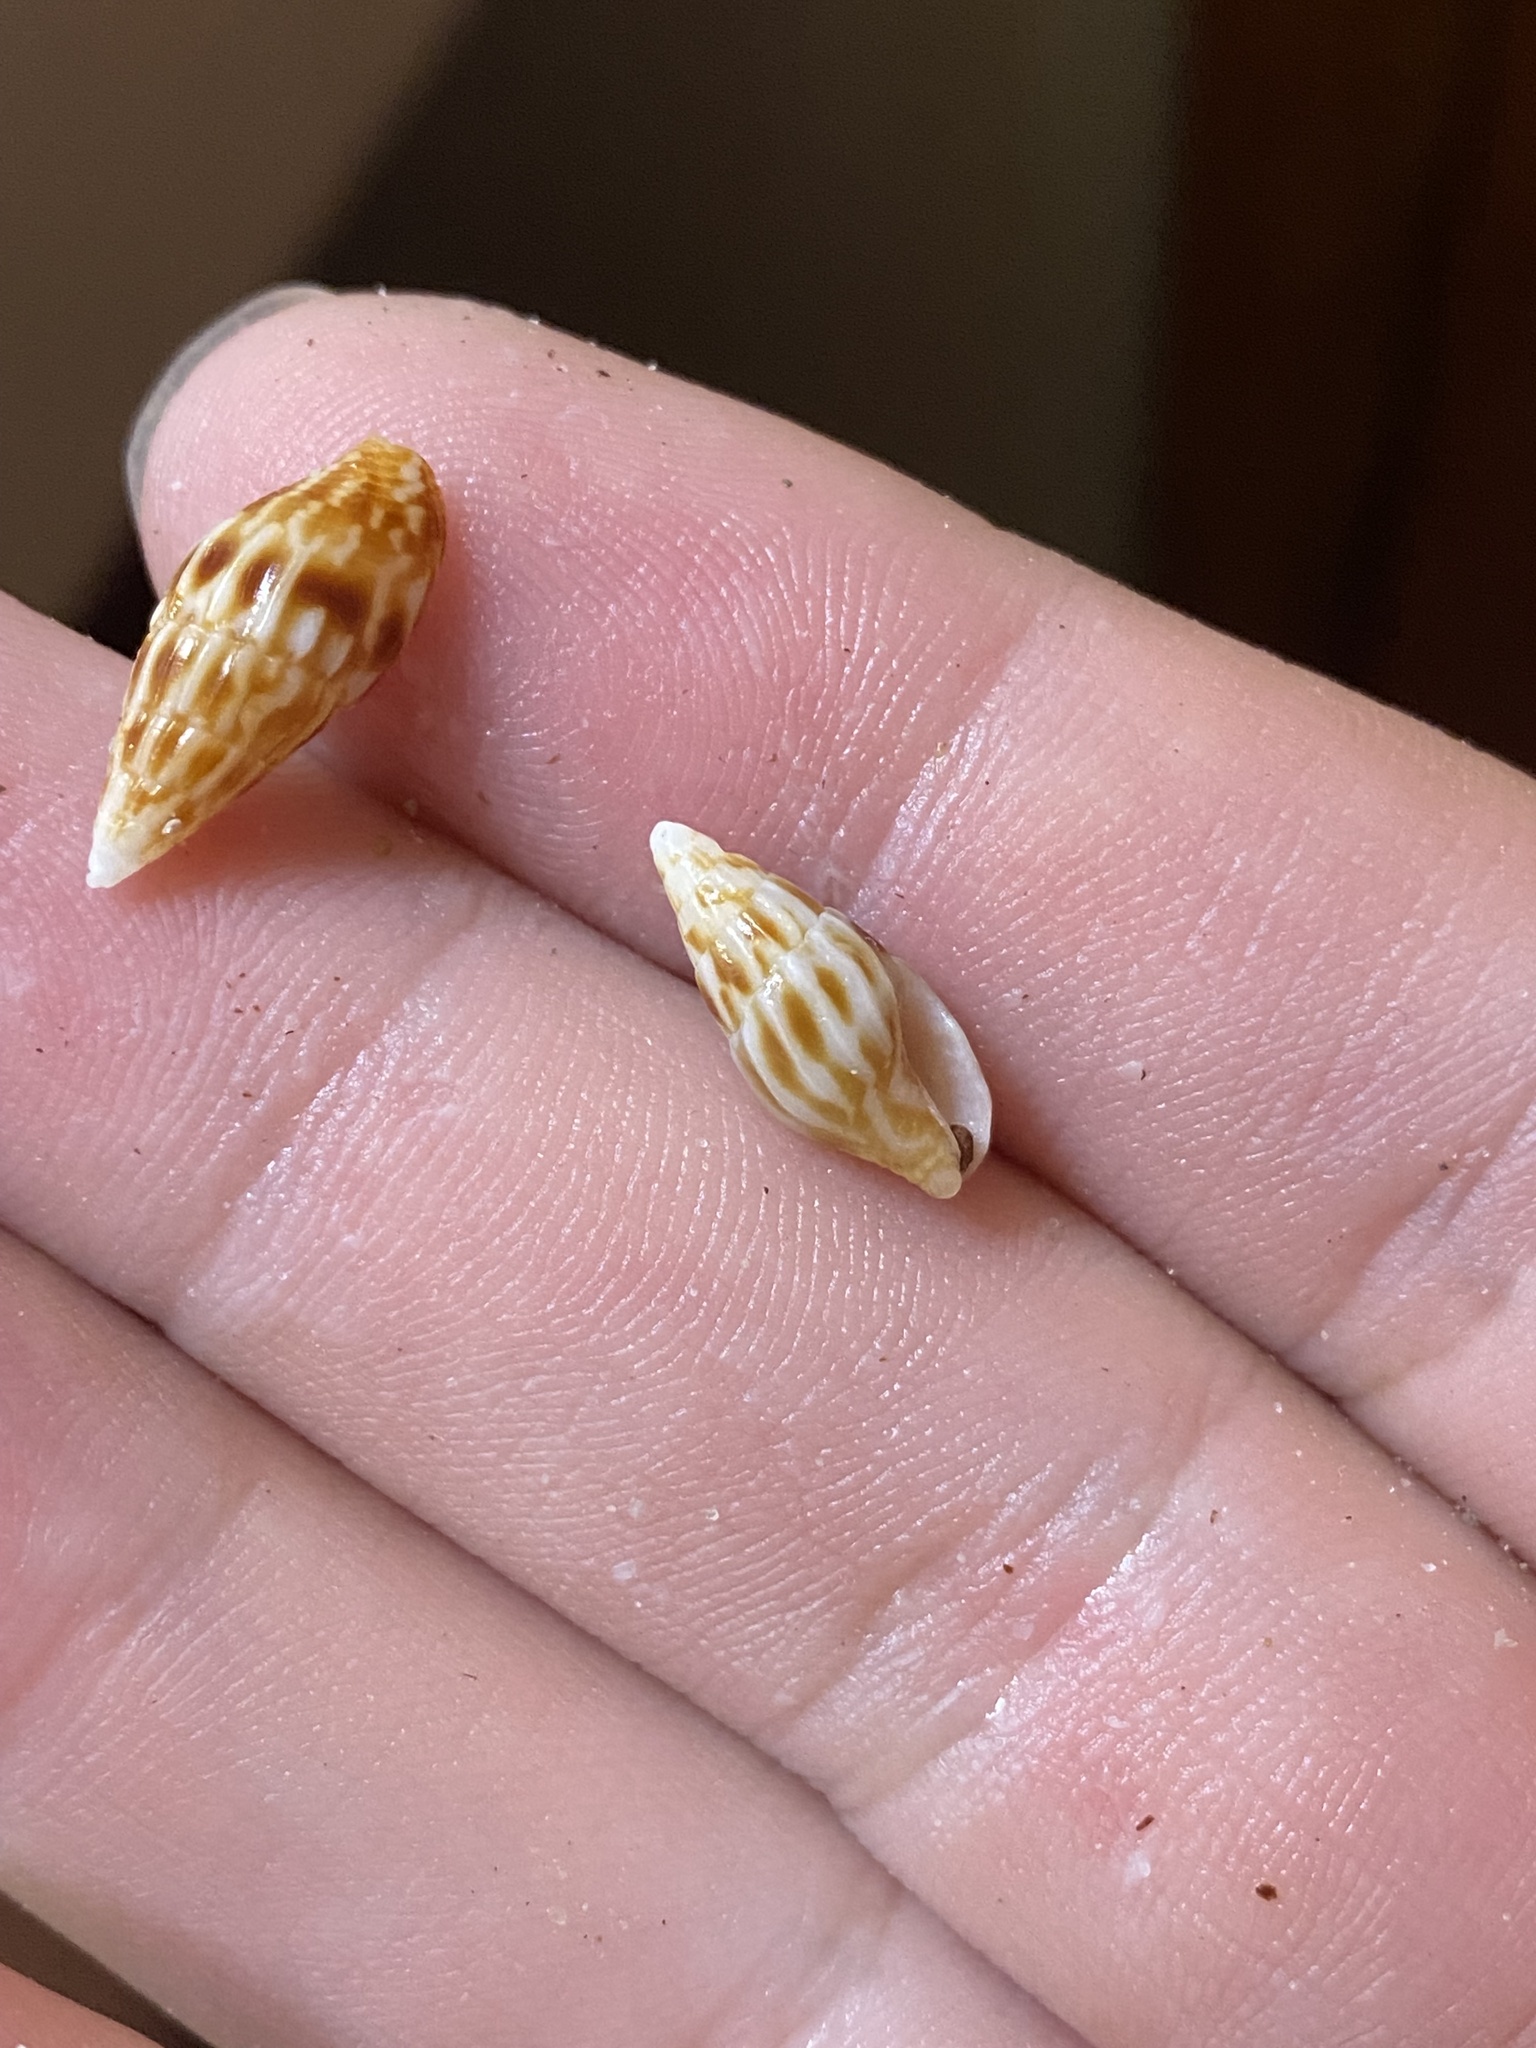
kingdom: Animalia
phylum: Mollusca
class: Gastropoda
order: Neogastropoda
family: Columbellidae
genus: Anachis
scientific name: Anachis vexillum
